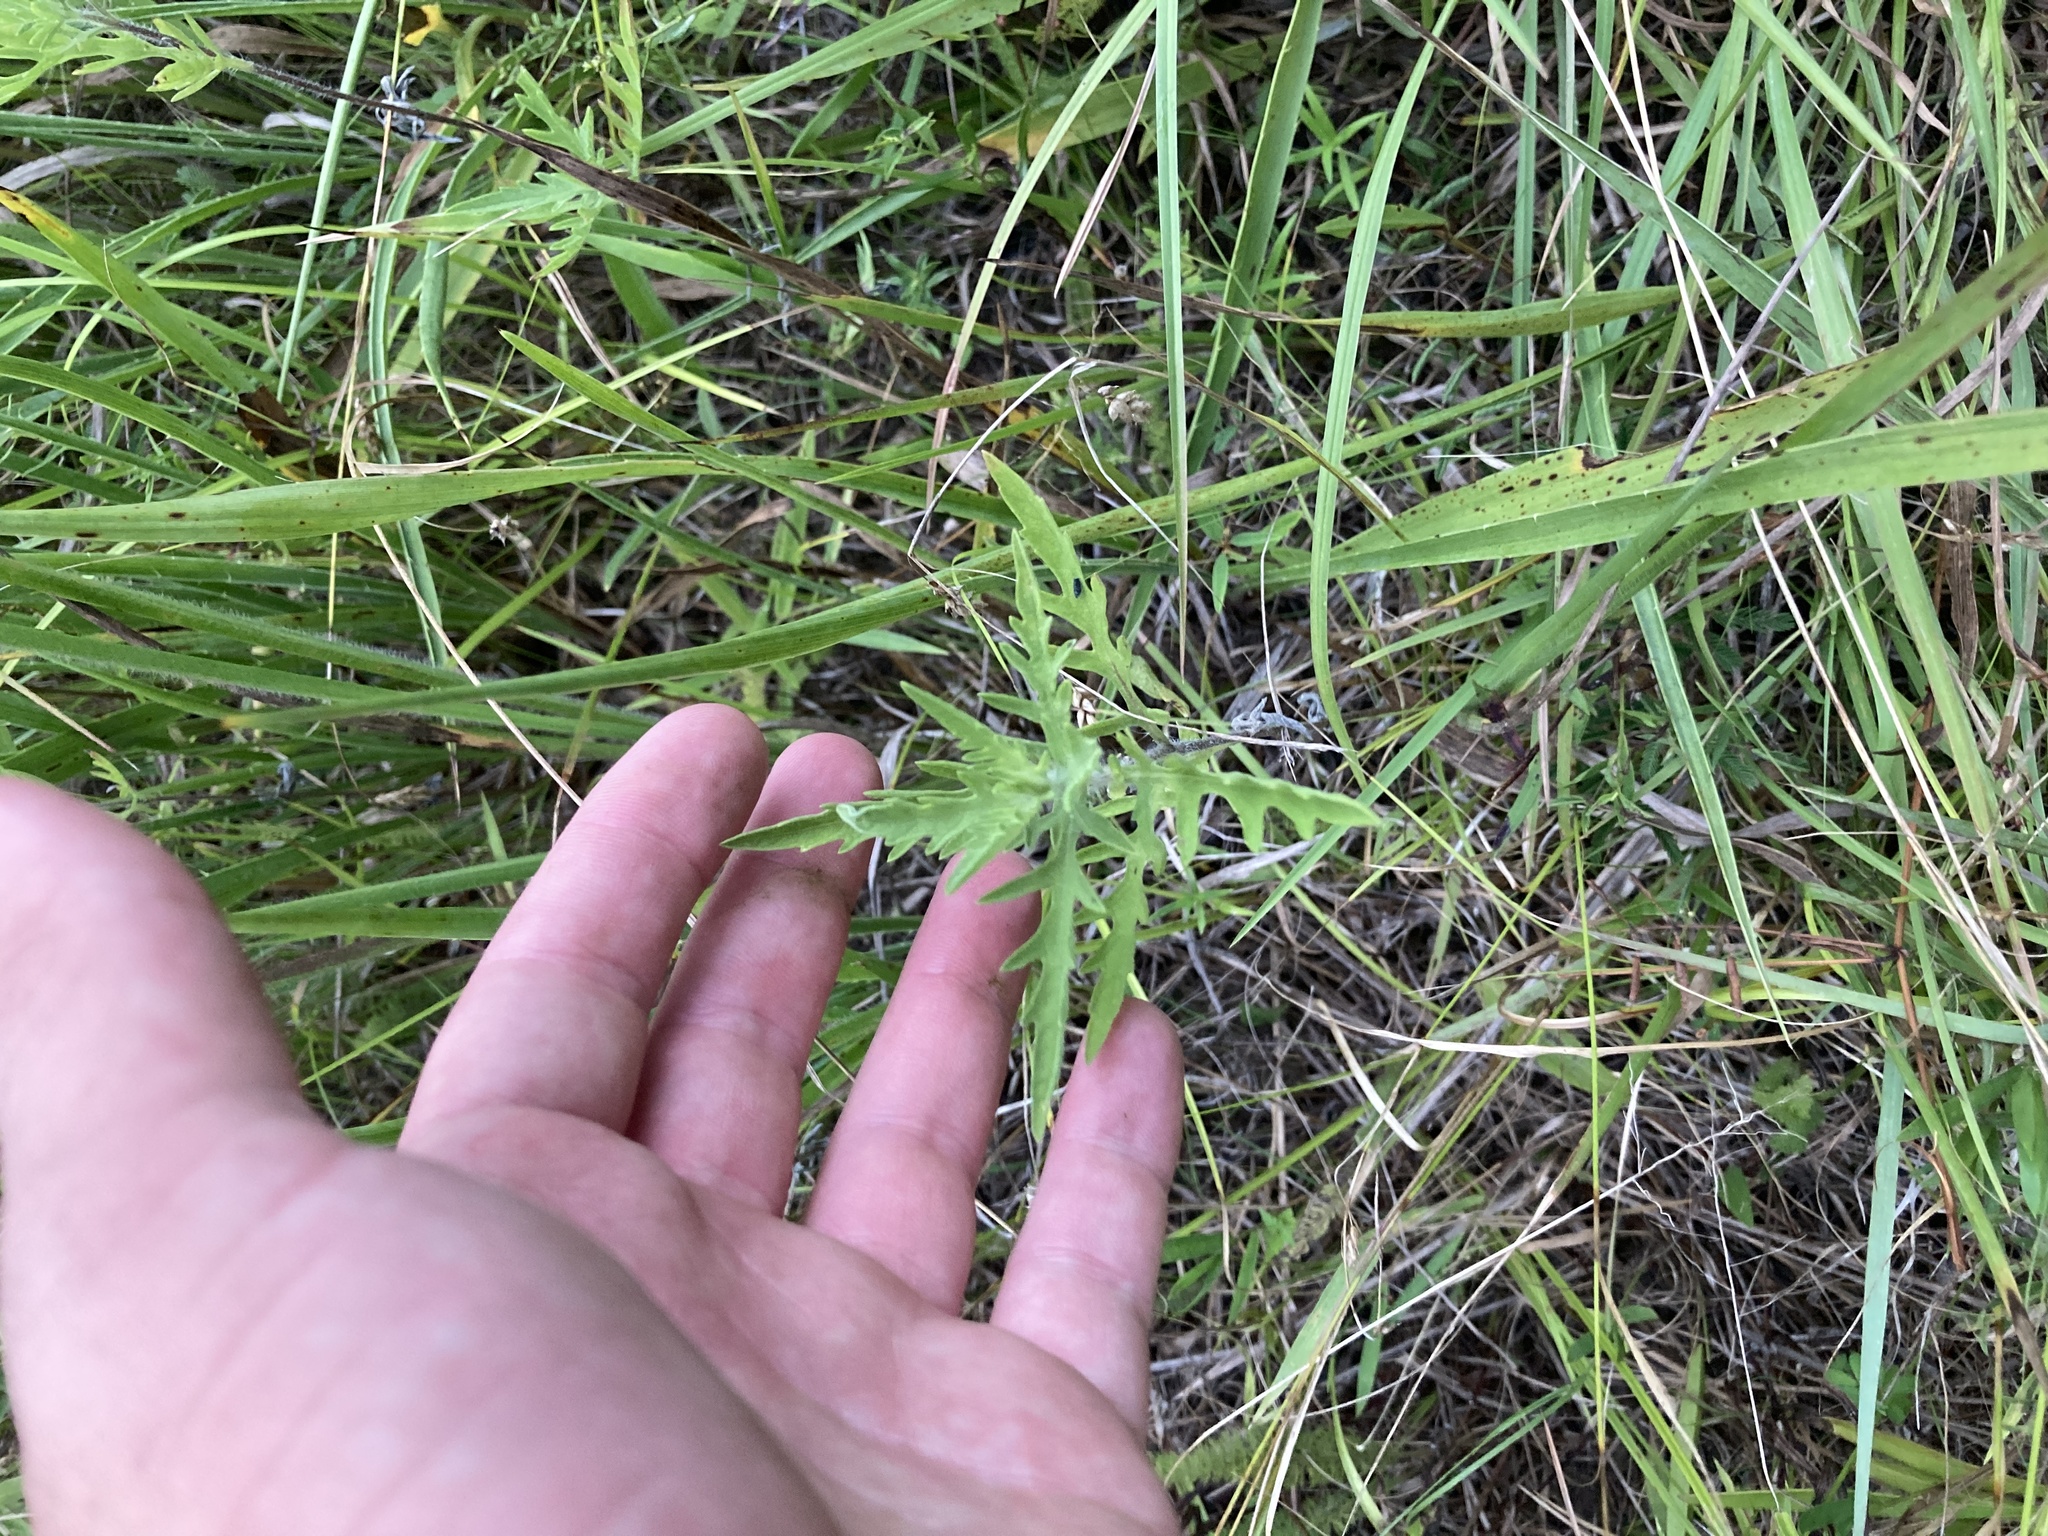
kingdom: Plantae
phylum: Tracheophyta
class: Magnoliopsida
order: Asterales
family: Asteraceae
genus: Ambrosia
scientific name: Ambrosia psilostachya
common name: Perennial ragweed
